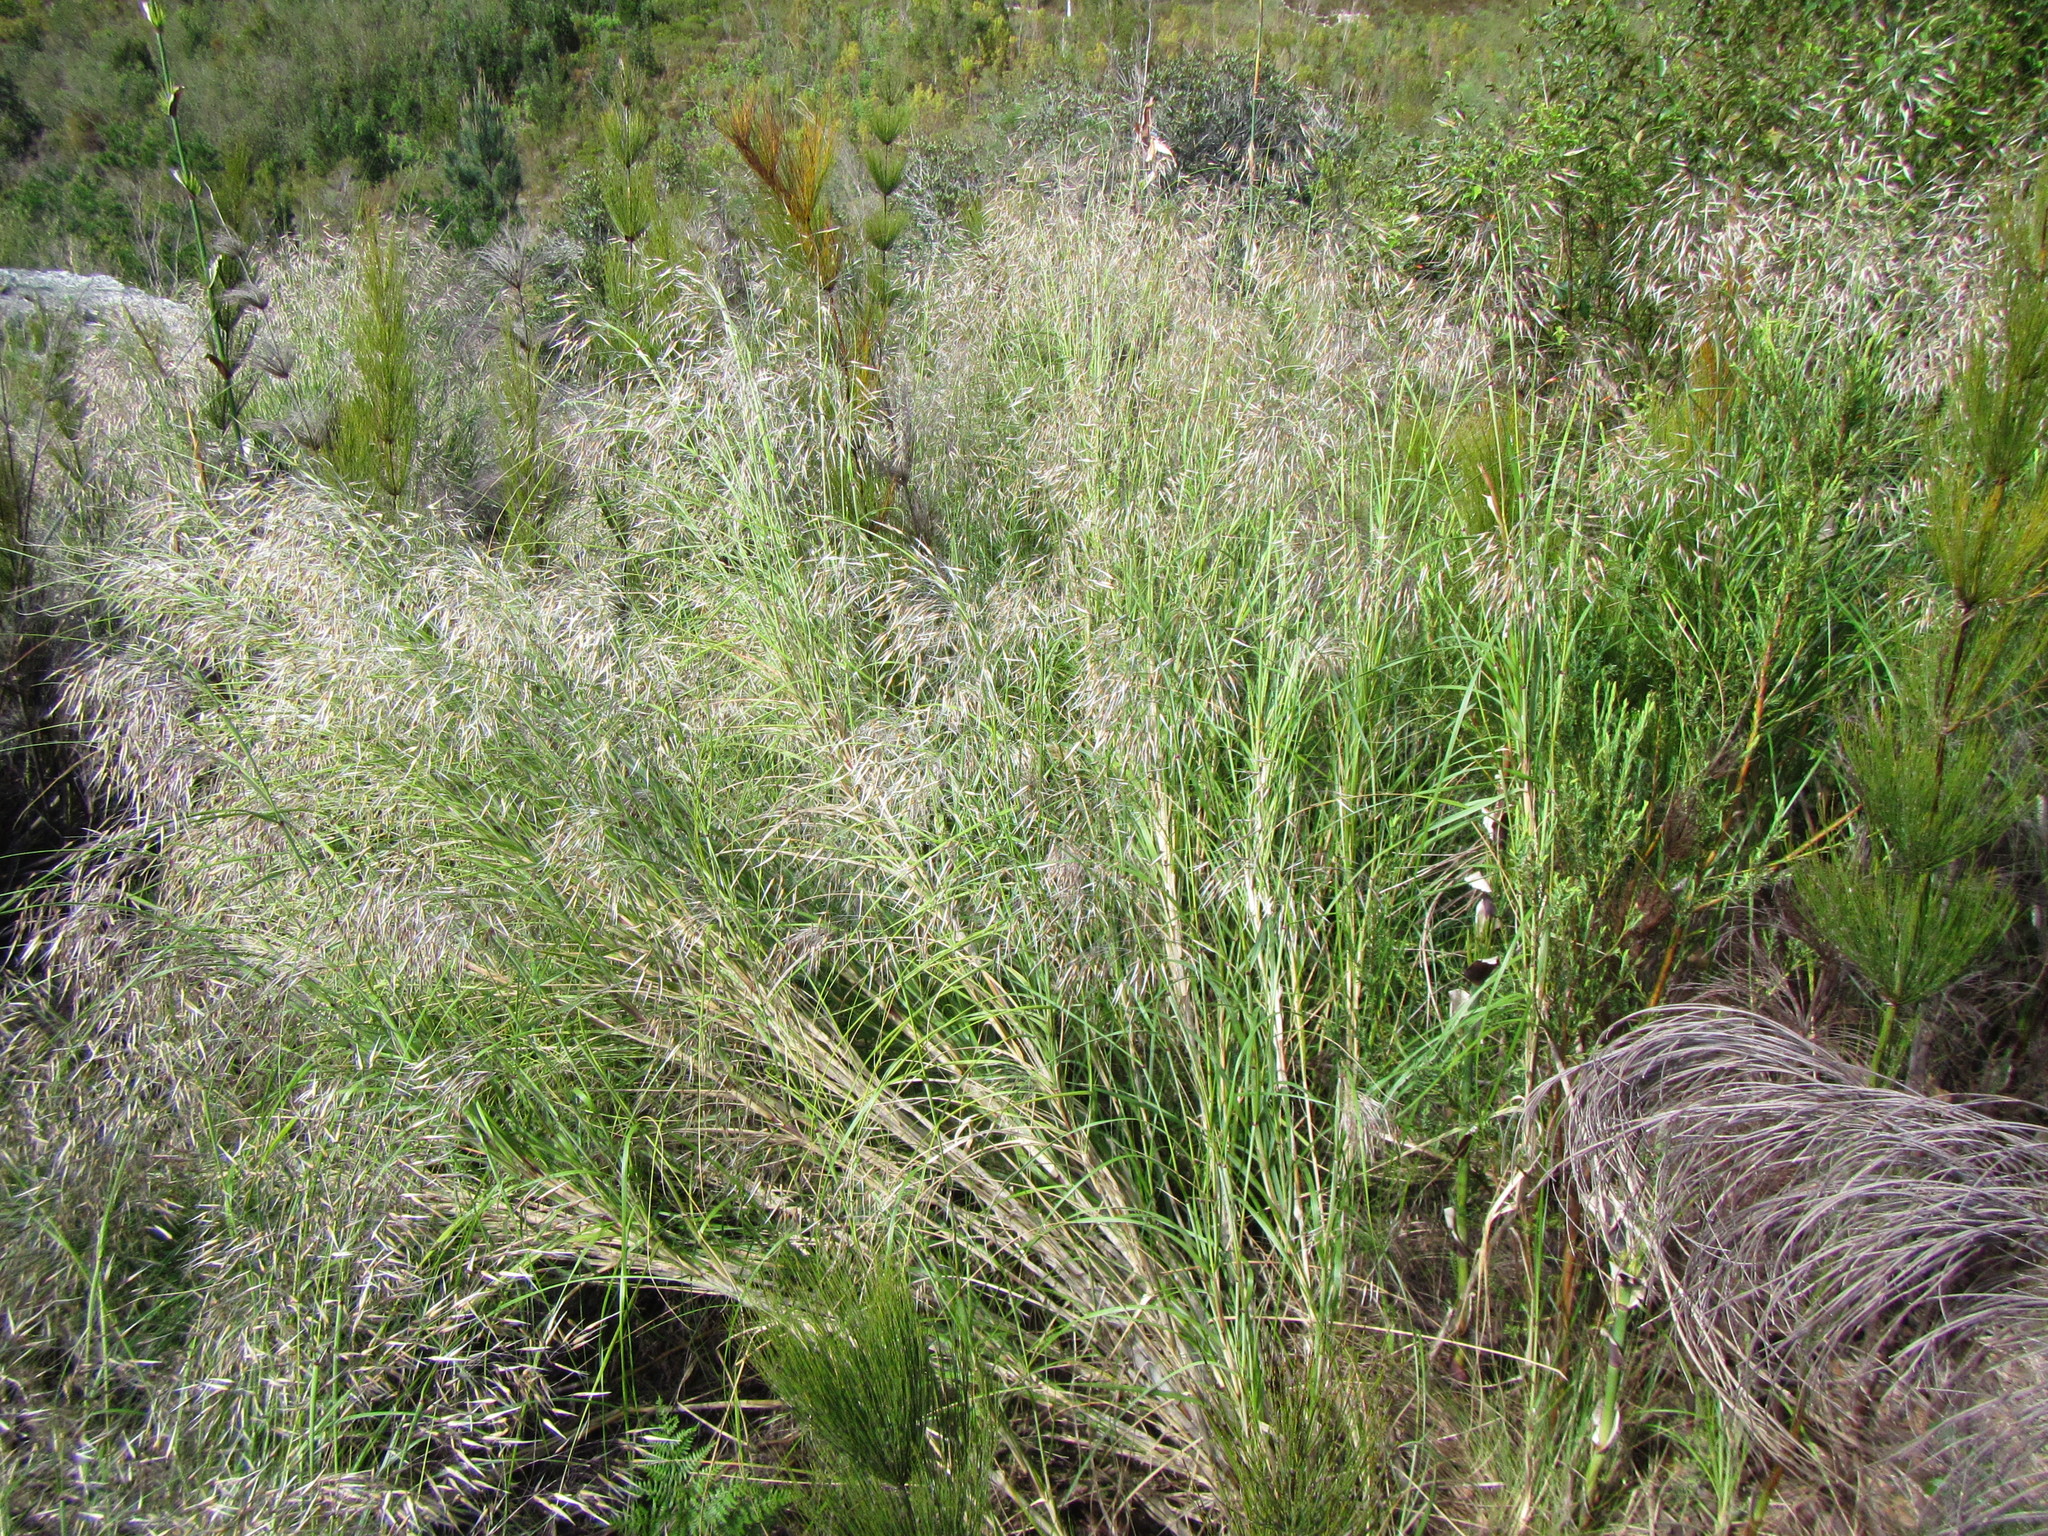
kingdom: Plantae
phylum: Tracheophyta
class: Liliopsida
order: Poales
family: Poaceae
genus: Pentameris
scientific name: Pentameris thuarii
